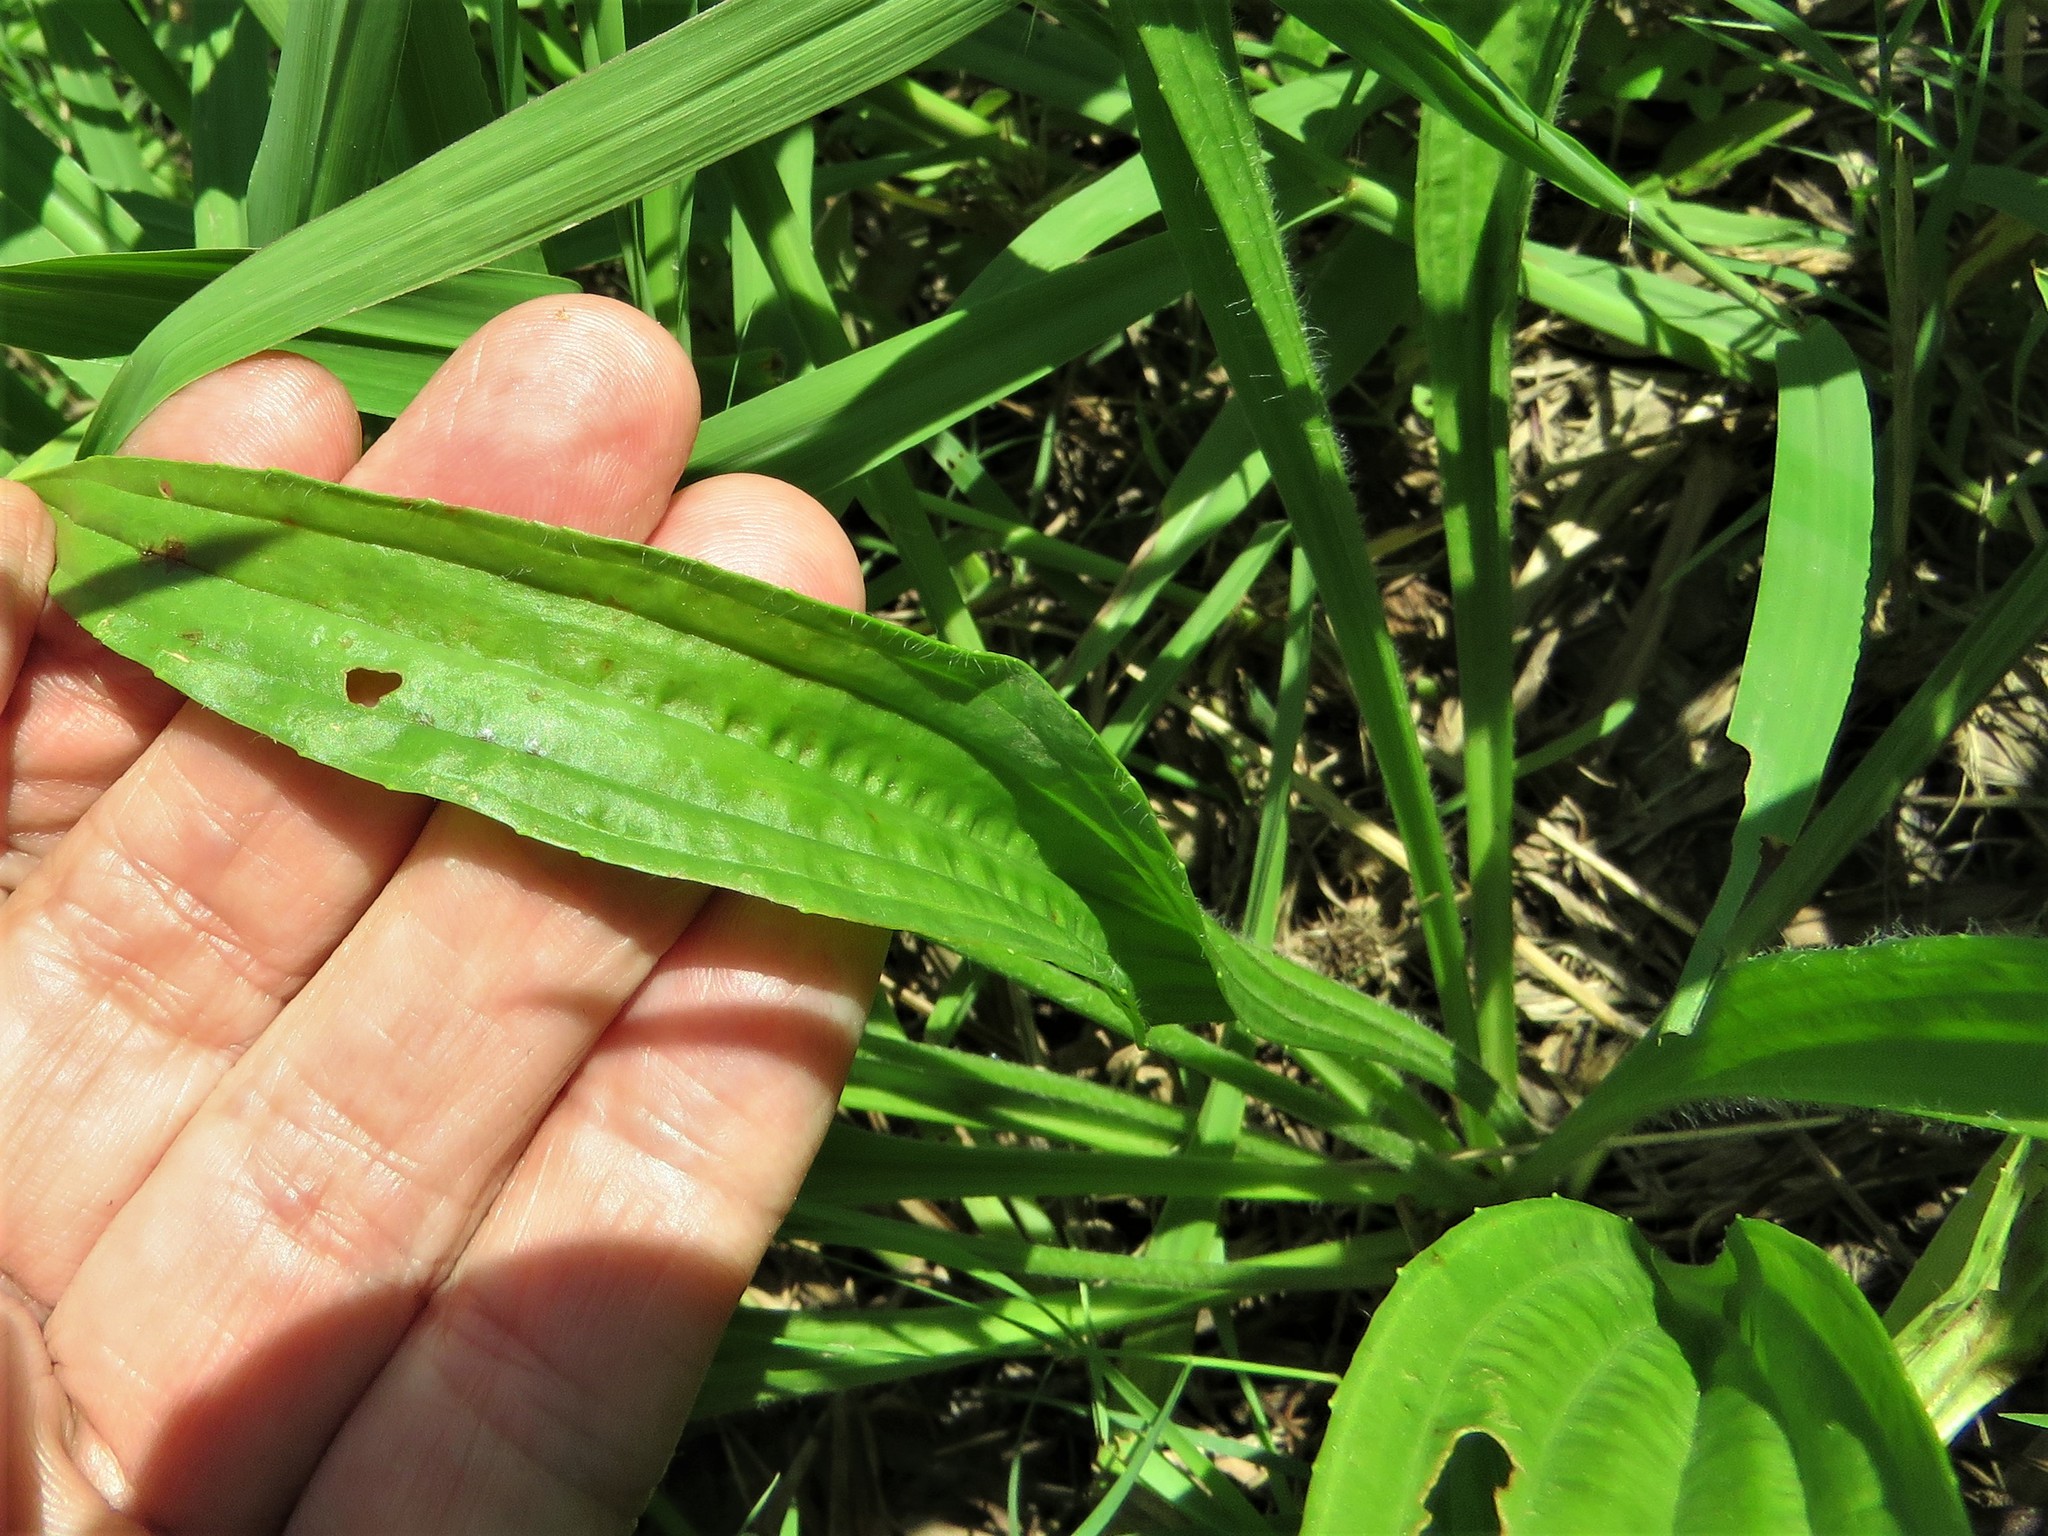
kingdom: Plantae
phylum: Tracheophyta
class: Magnoliopsida
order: Lamiales
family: Plantaginaceae
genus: Plantago
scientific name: Plantago lanceolata
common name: Ribwort plantain
